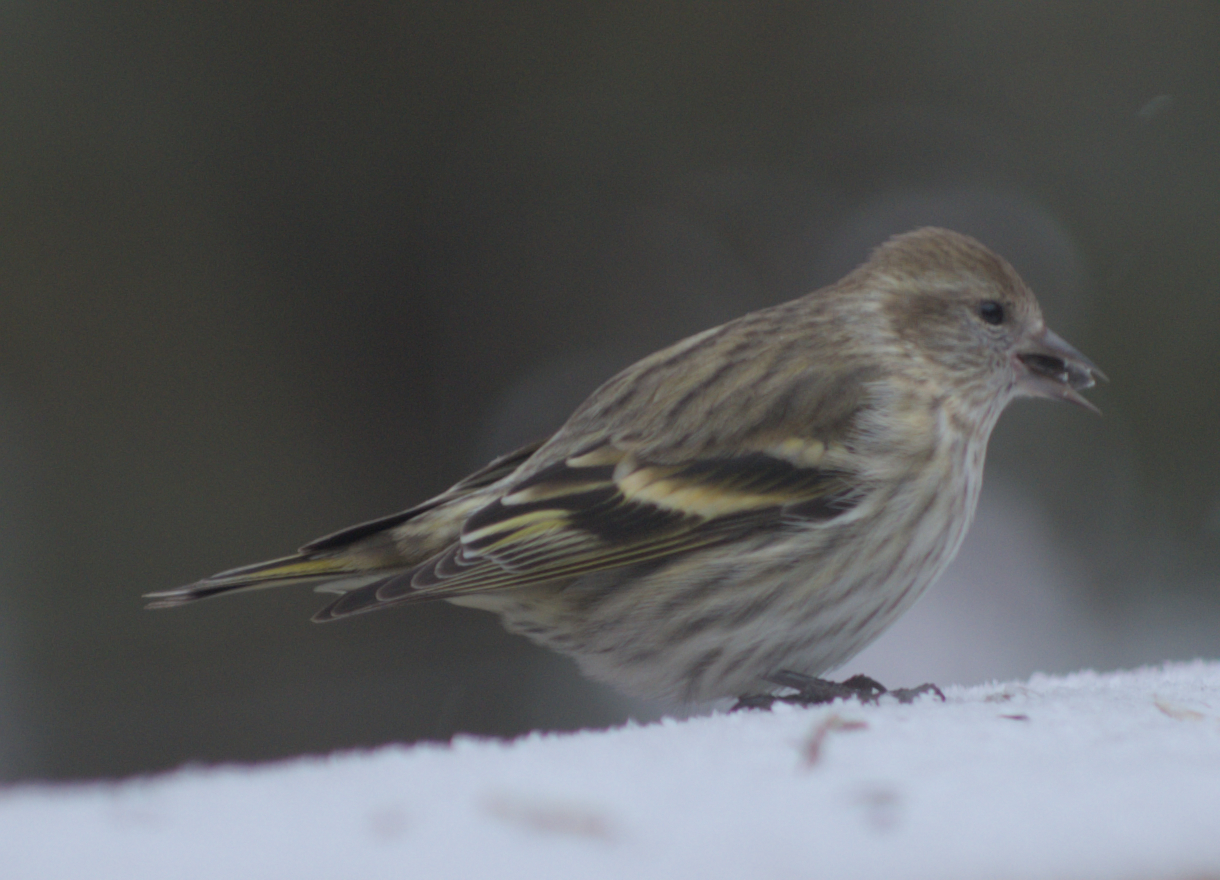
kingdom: Animalia
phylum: Chordata
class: Aves
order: Passeriformes
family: Fringillidae
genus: Spinus
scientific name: Spinus pinus
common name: Pine siskin
